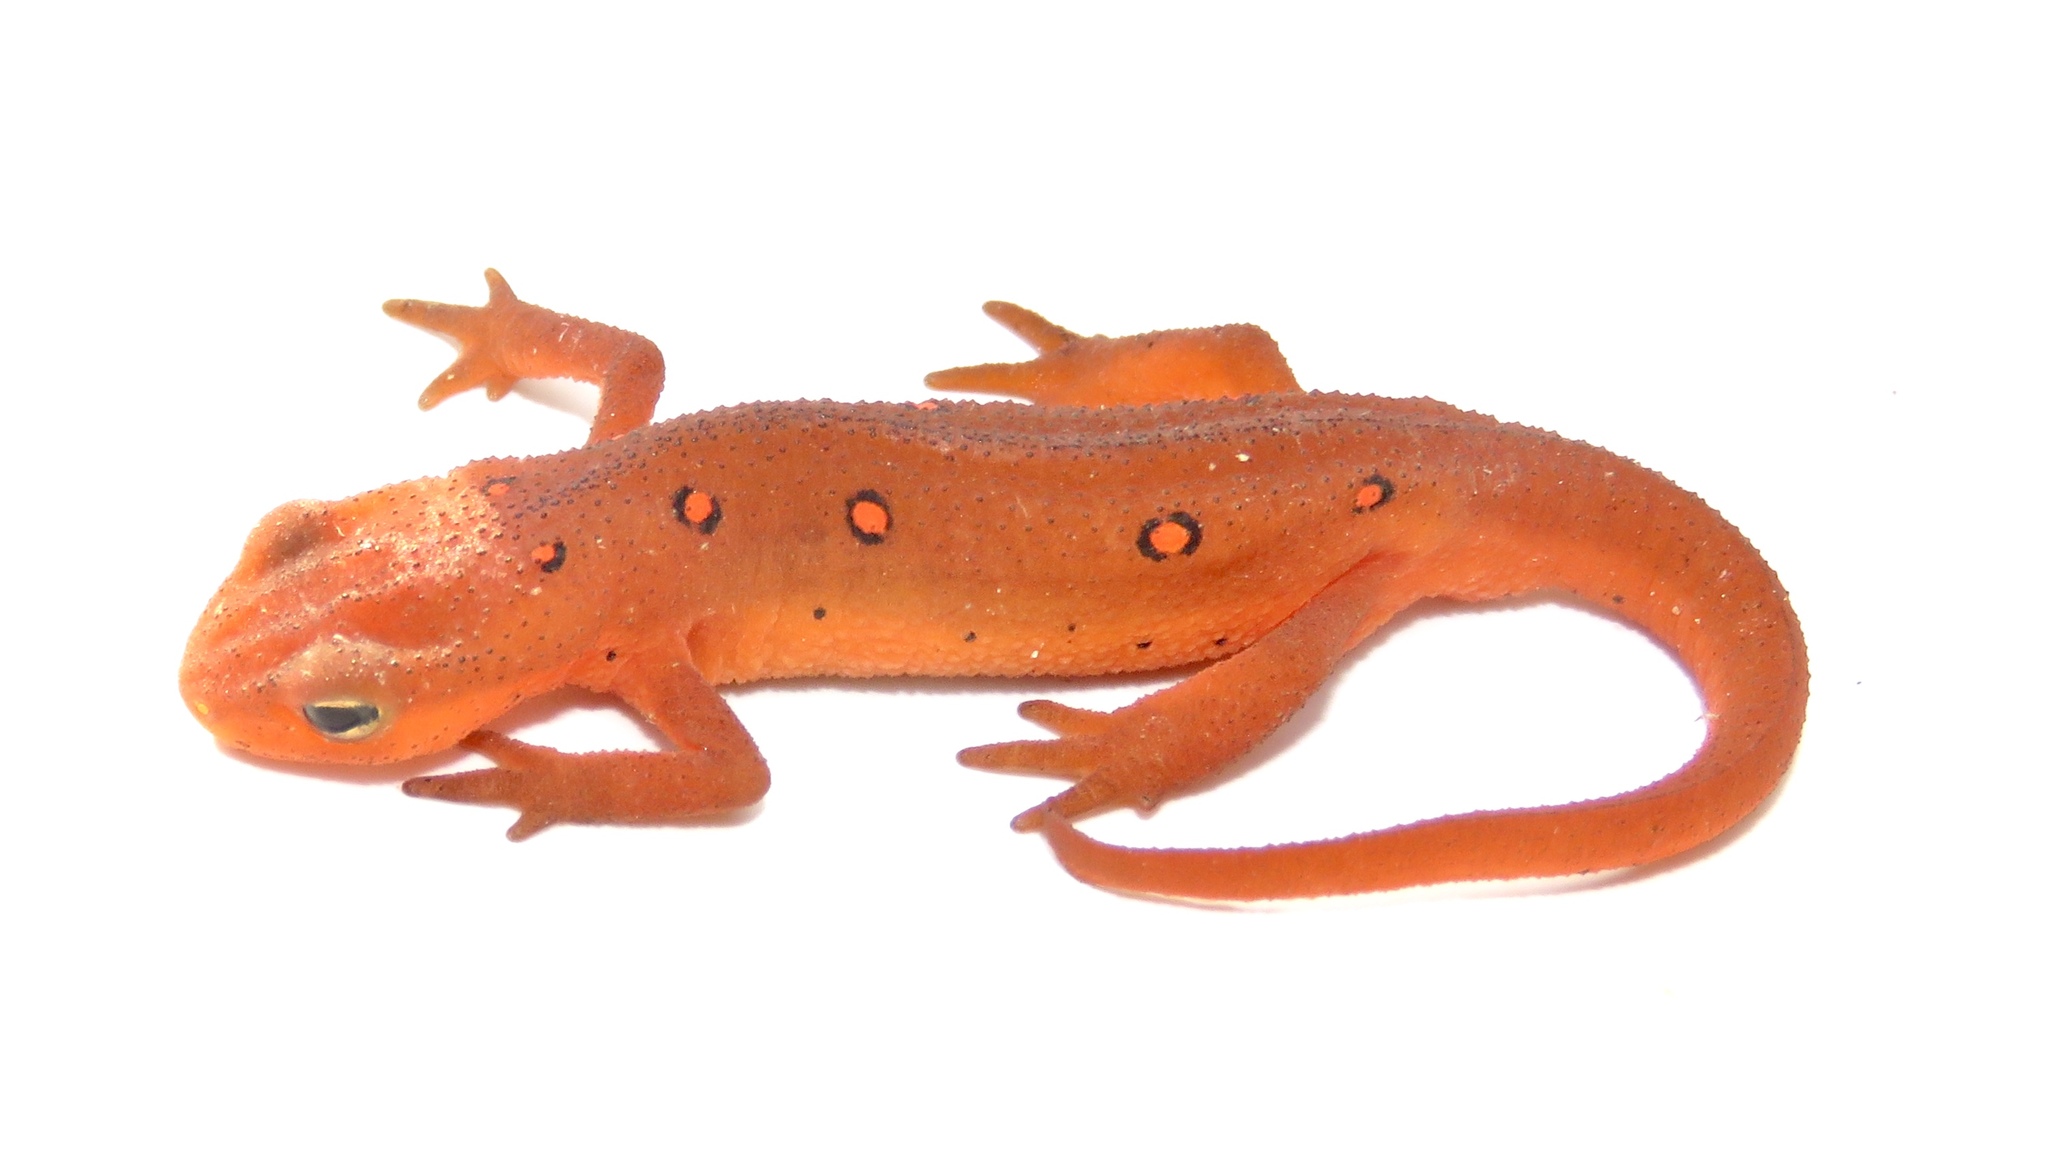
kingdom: Animalia
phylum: Chordata
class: Amphibia
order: Caudata
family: Salamandridae
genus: Notophthalmus
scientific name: Notophthalmus viridescens
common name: Eastern newt
